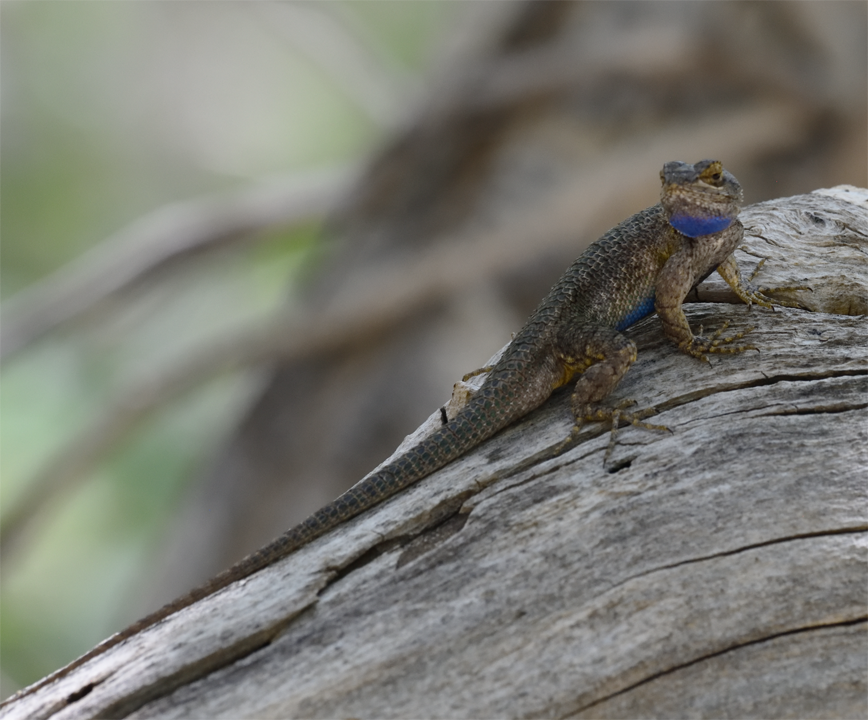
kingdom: Animalia
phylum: Chordata
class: Squamata
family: Phrynosomatidae
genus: Sceloporus
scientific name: Sceloporus occidentalis
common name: Western fence lizard
